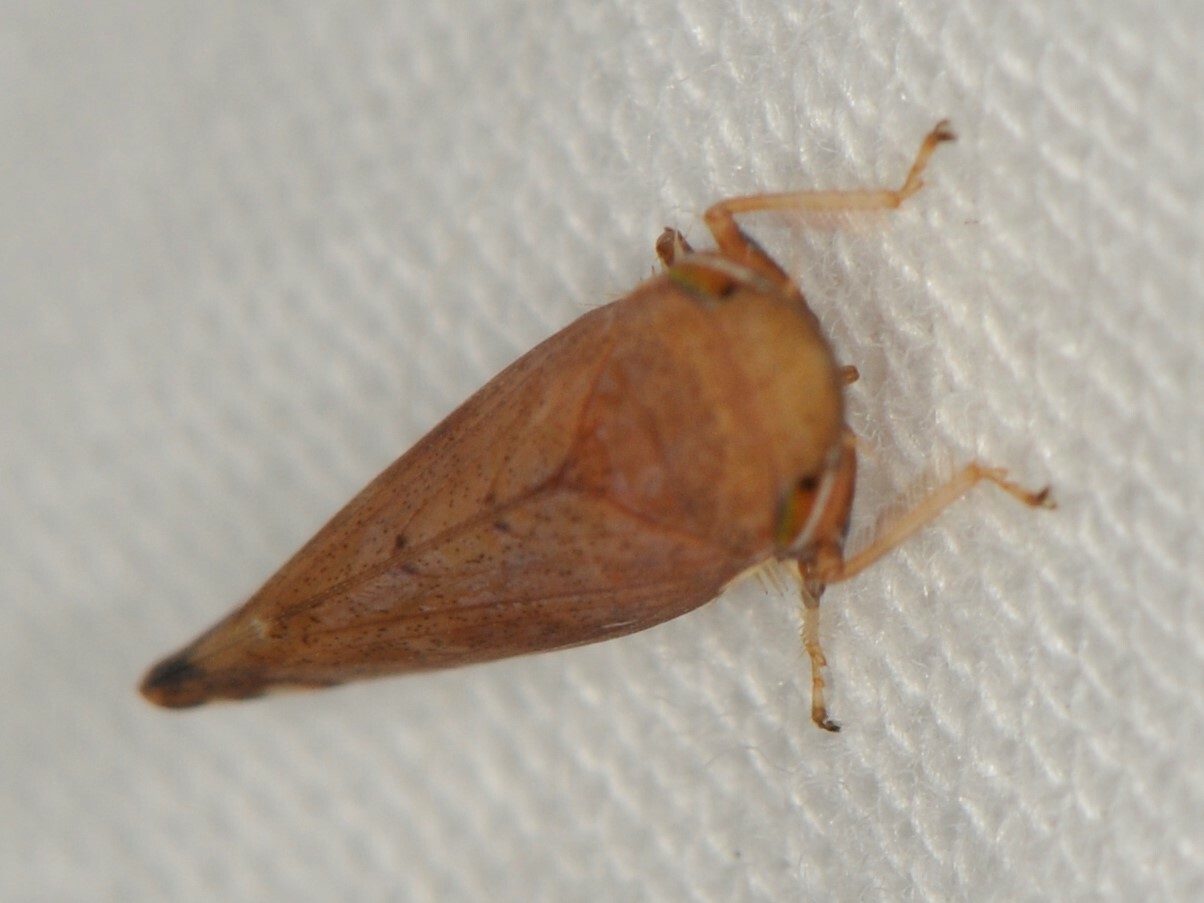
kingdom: Animalia
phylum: Arthropoda
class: Insecta
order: Hemiptera
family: Cicadellidae
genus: Fieberiella
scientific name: Fieberiella florii
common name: Flor’s leafhopper
